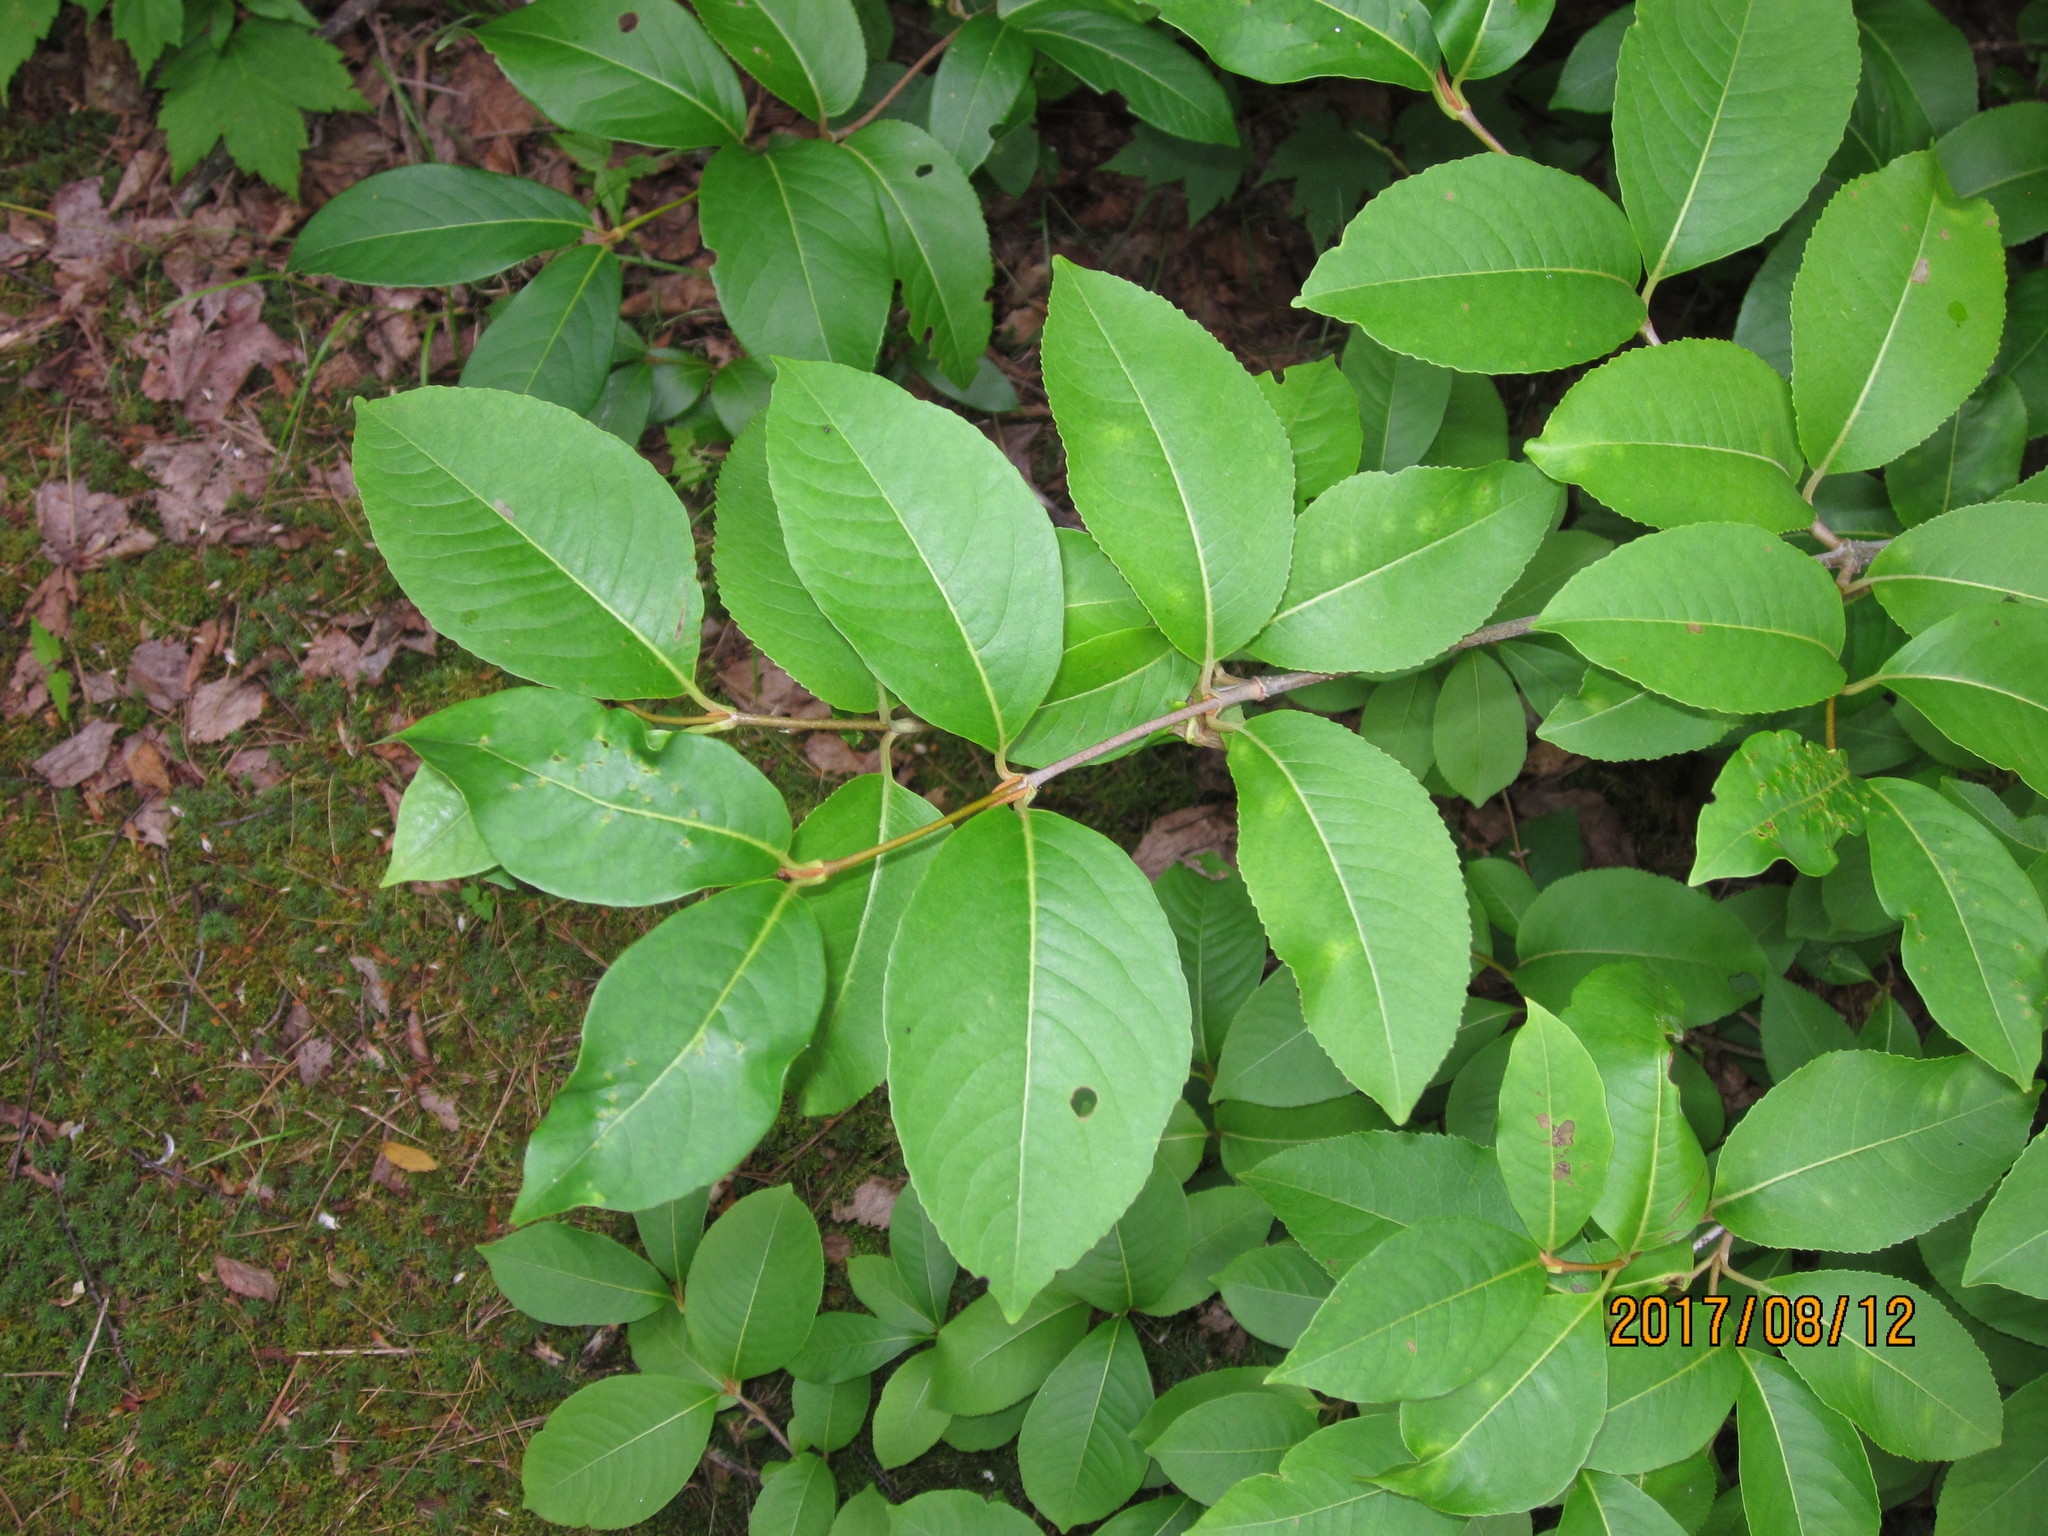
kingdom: Plantae
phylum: Tracheophyta
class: Magnoliopsida
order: Dipsacales
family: Viburnaceae
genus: Viburnum
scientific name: Viburnum cassinoides
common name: Swamp haw
